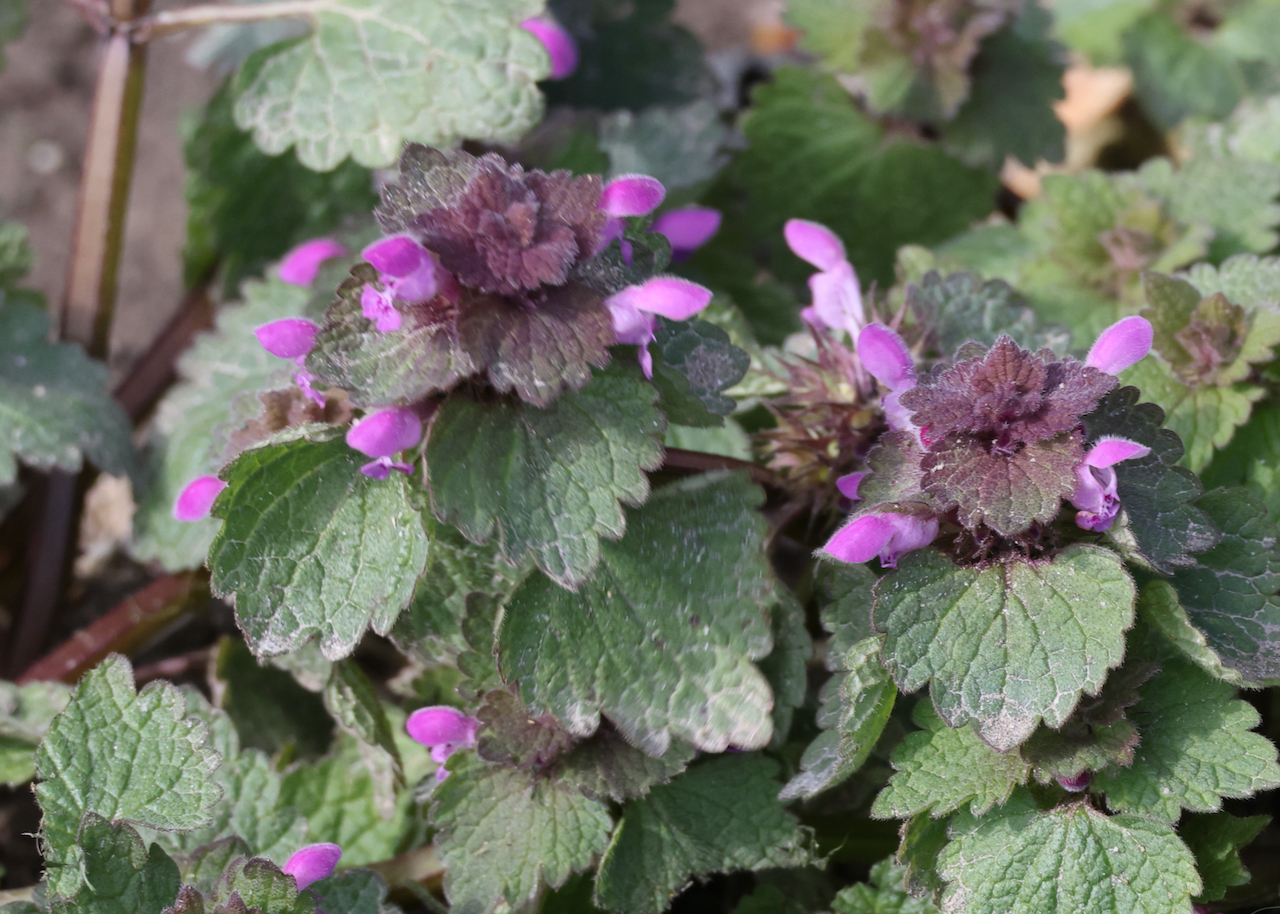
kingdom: Plantae
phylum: Tracheophyta
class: Magnoliopsida
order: Lamiales
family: Lamiaceae
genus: Lamium
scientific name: Lamium purpureum
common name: Red dead-nettle
